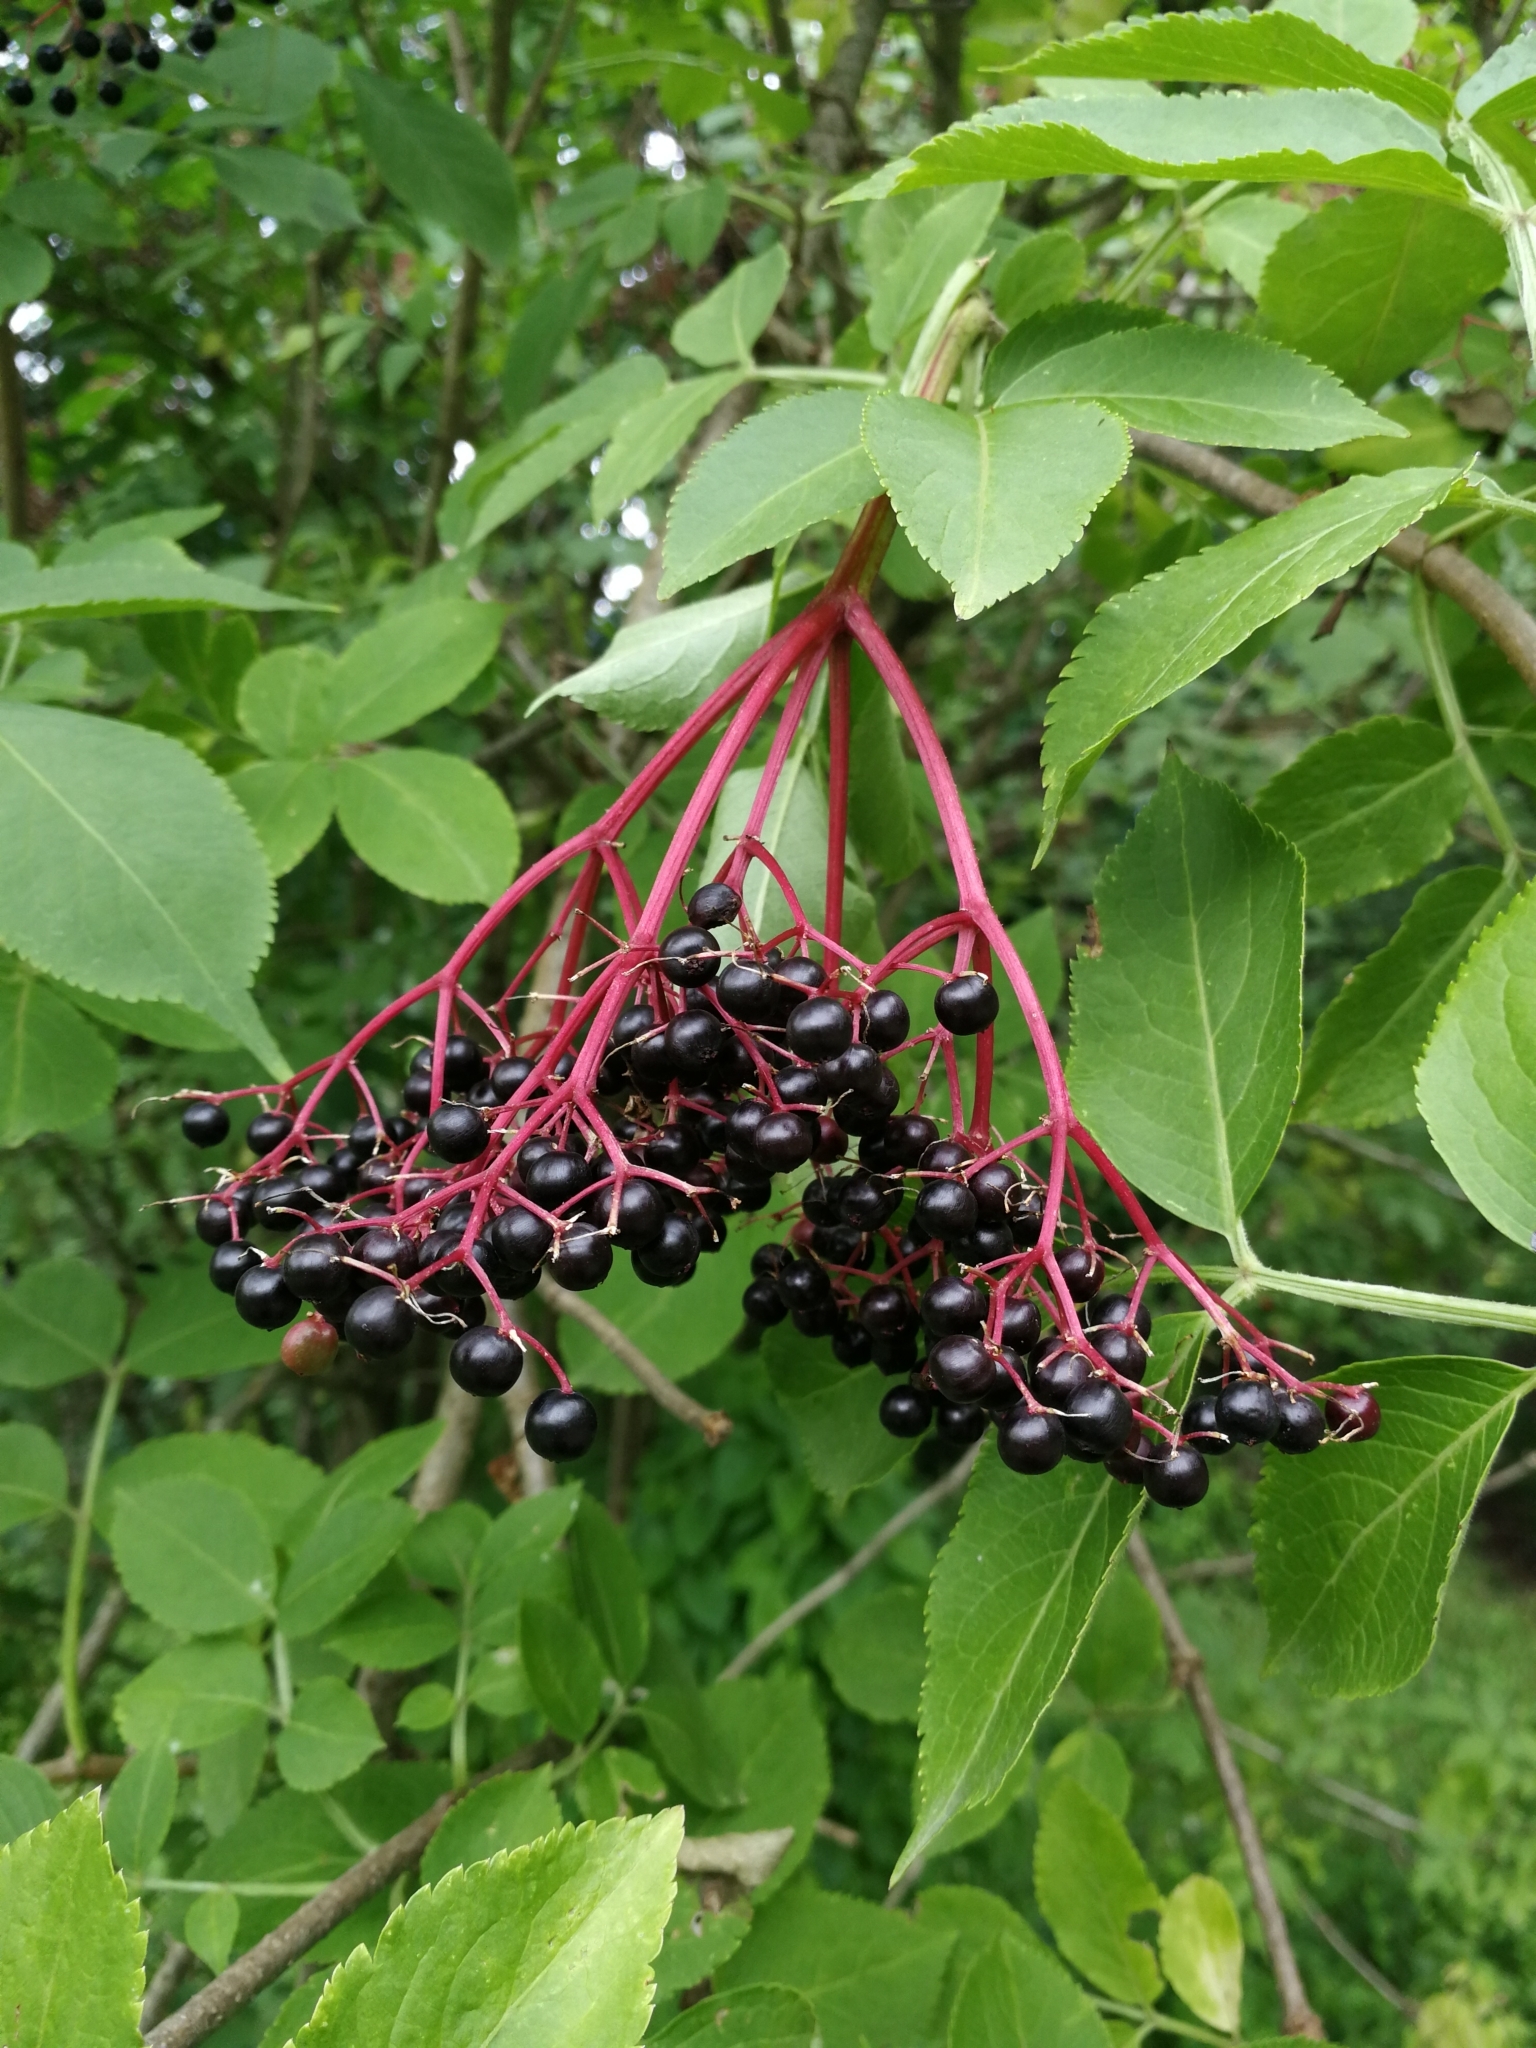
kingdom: Plantae
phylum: Tracheophyta
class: Magnoliopsida
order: Dipsacales
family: Viburnaceae
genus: Sambucus
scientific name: Sambucus nigra
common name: Elder
